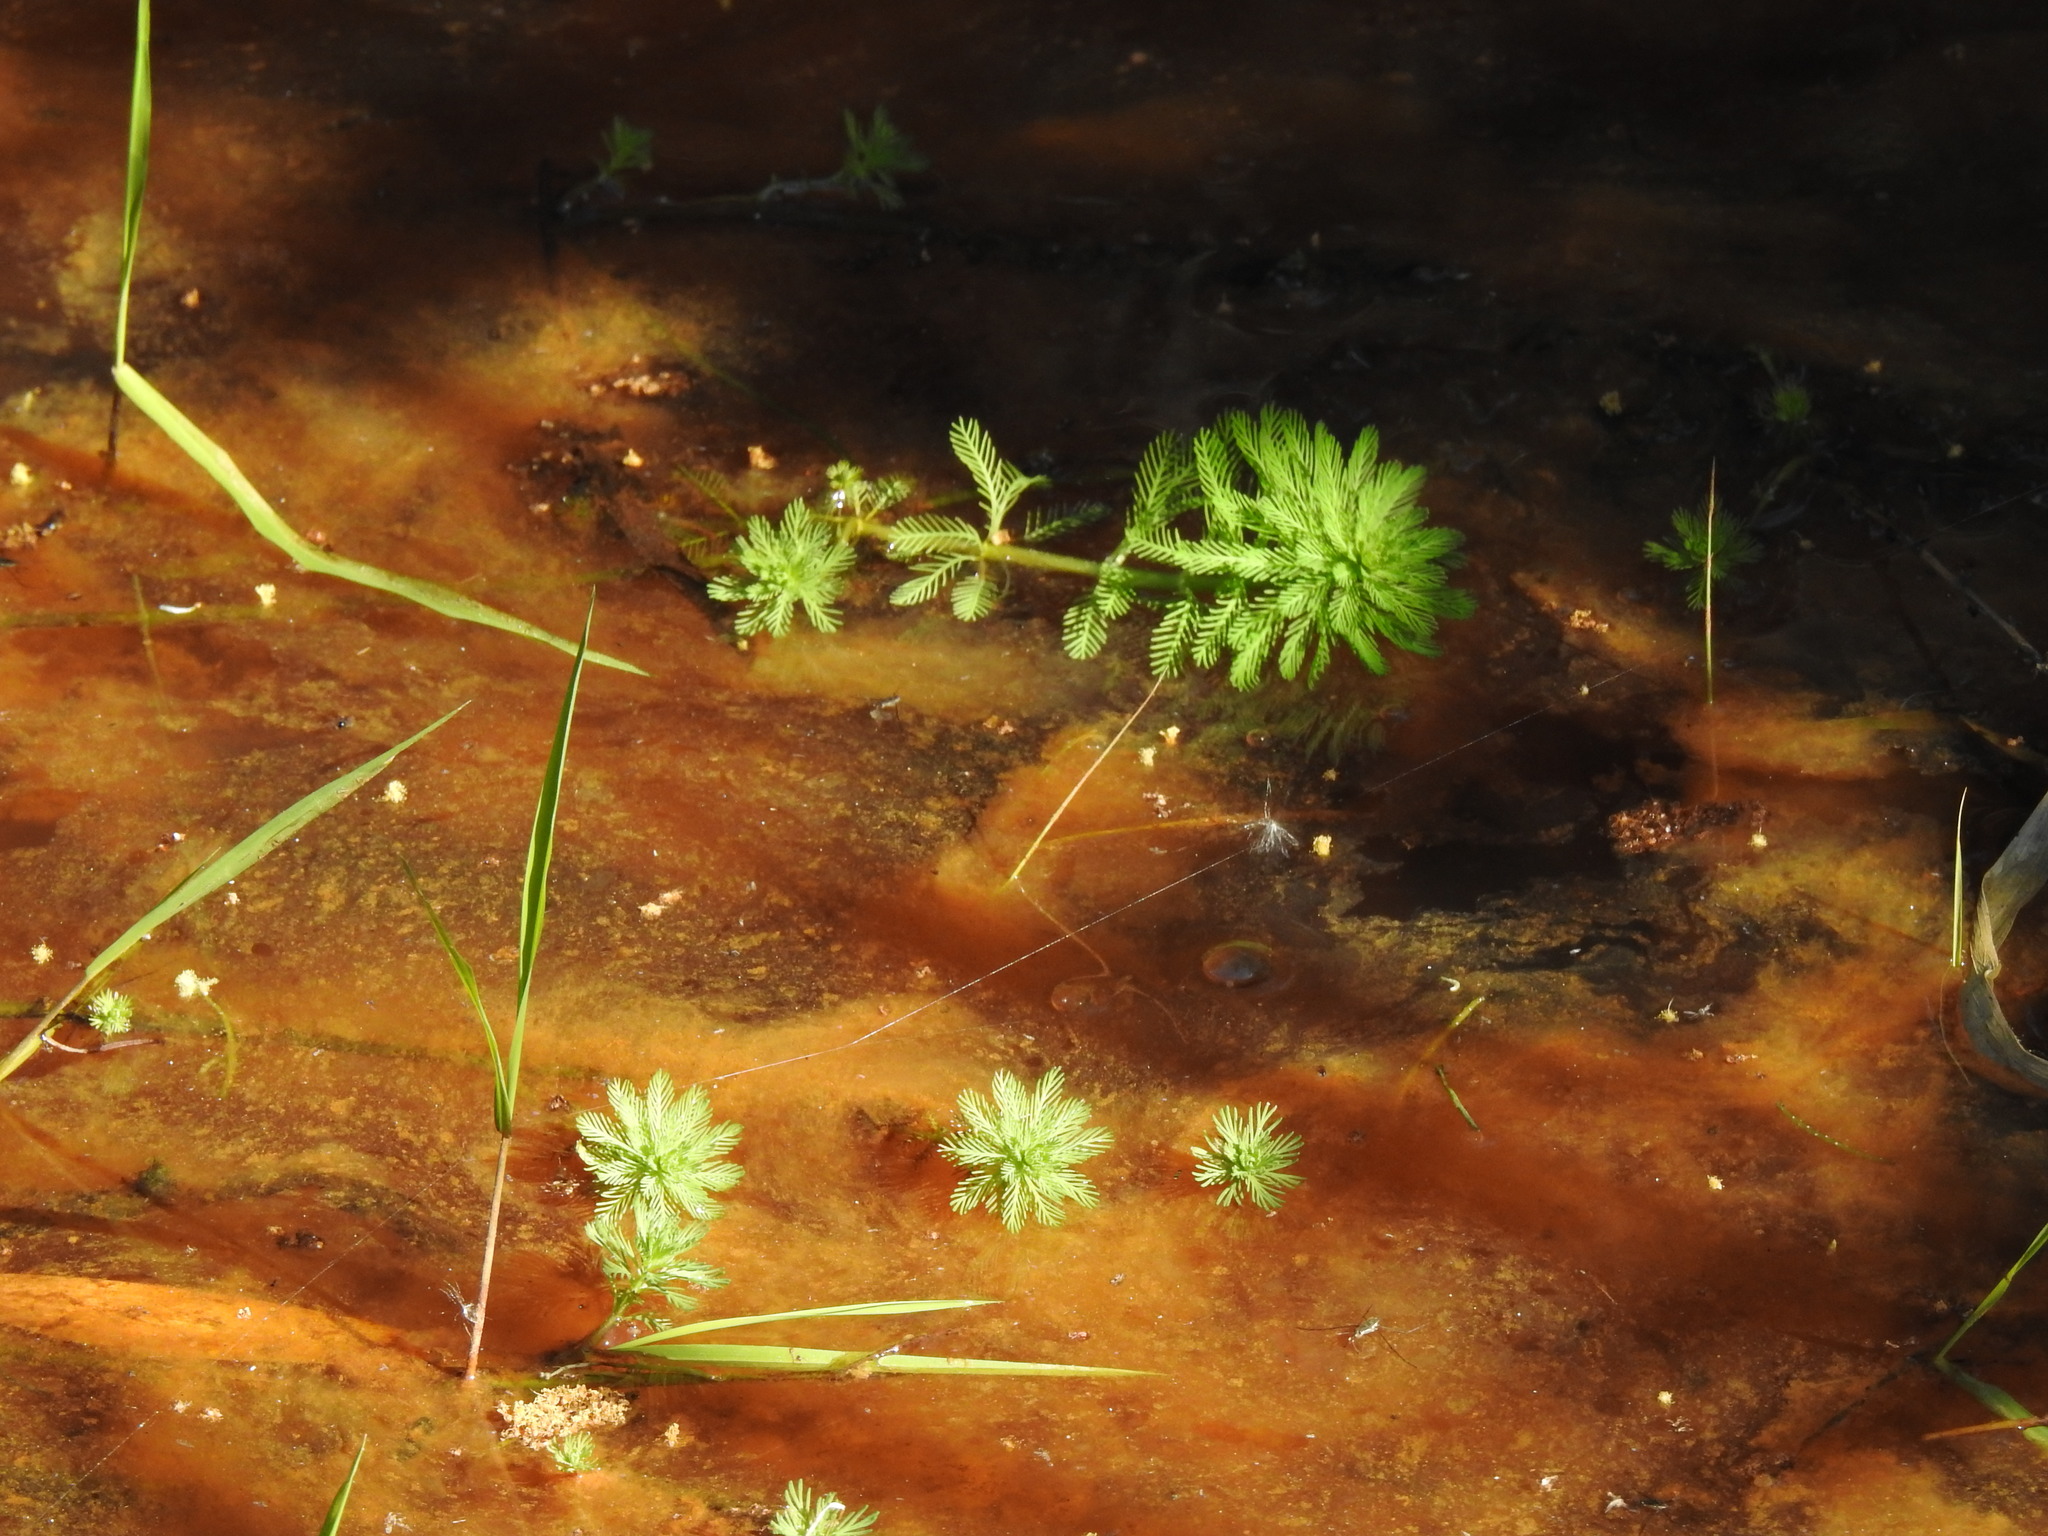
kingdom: Plantae
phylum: Tracheophyta
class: Magnoliopsida
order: Saxifragales
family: Haloragaceae
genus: Myriophyllum
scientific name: Myriophyllum aquaticum
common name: Parrot's feather
